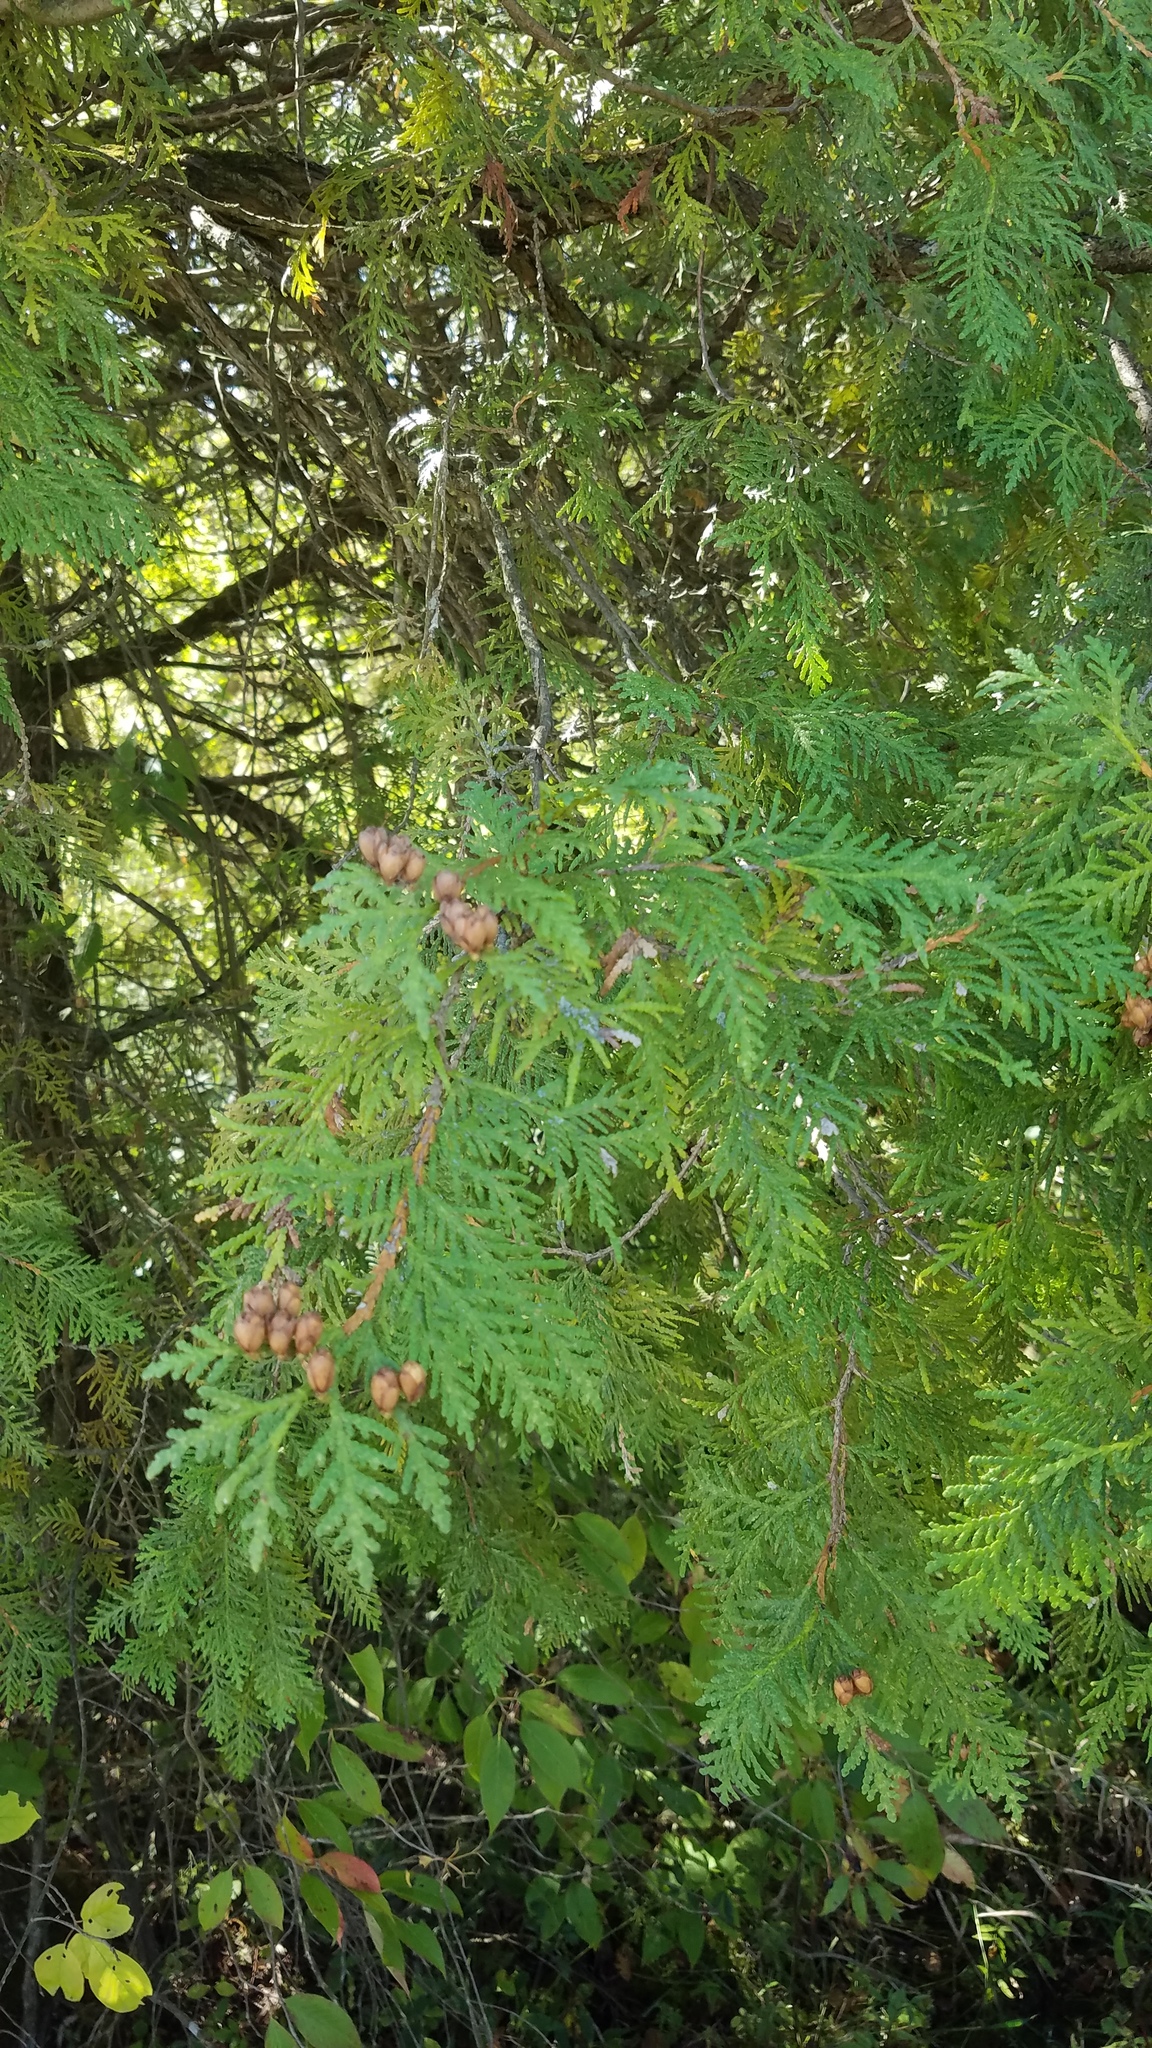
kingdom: Plantae
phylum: Tracheophyta
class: Pinopsida
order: Pinales
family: Cupressaceae
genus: Thuja
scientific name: Thuja occidentalis
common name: Northern white-cedar
